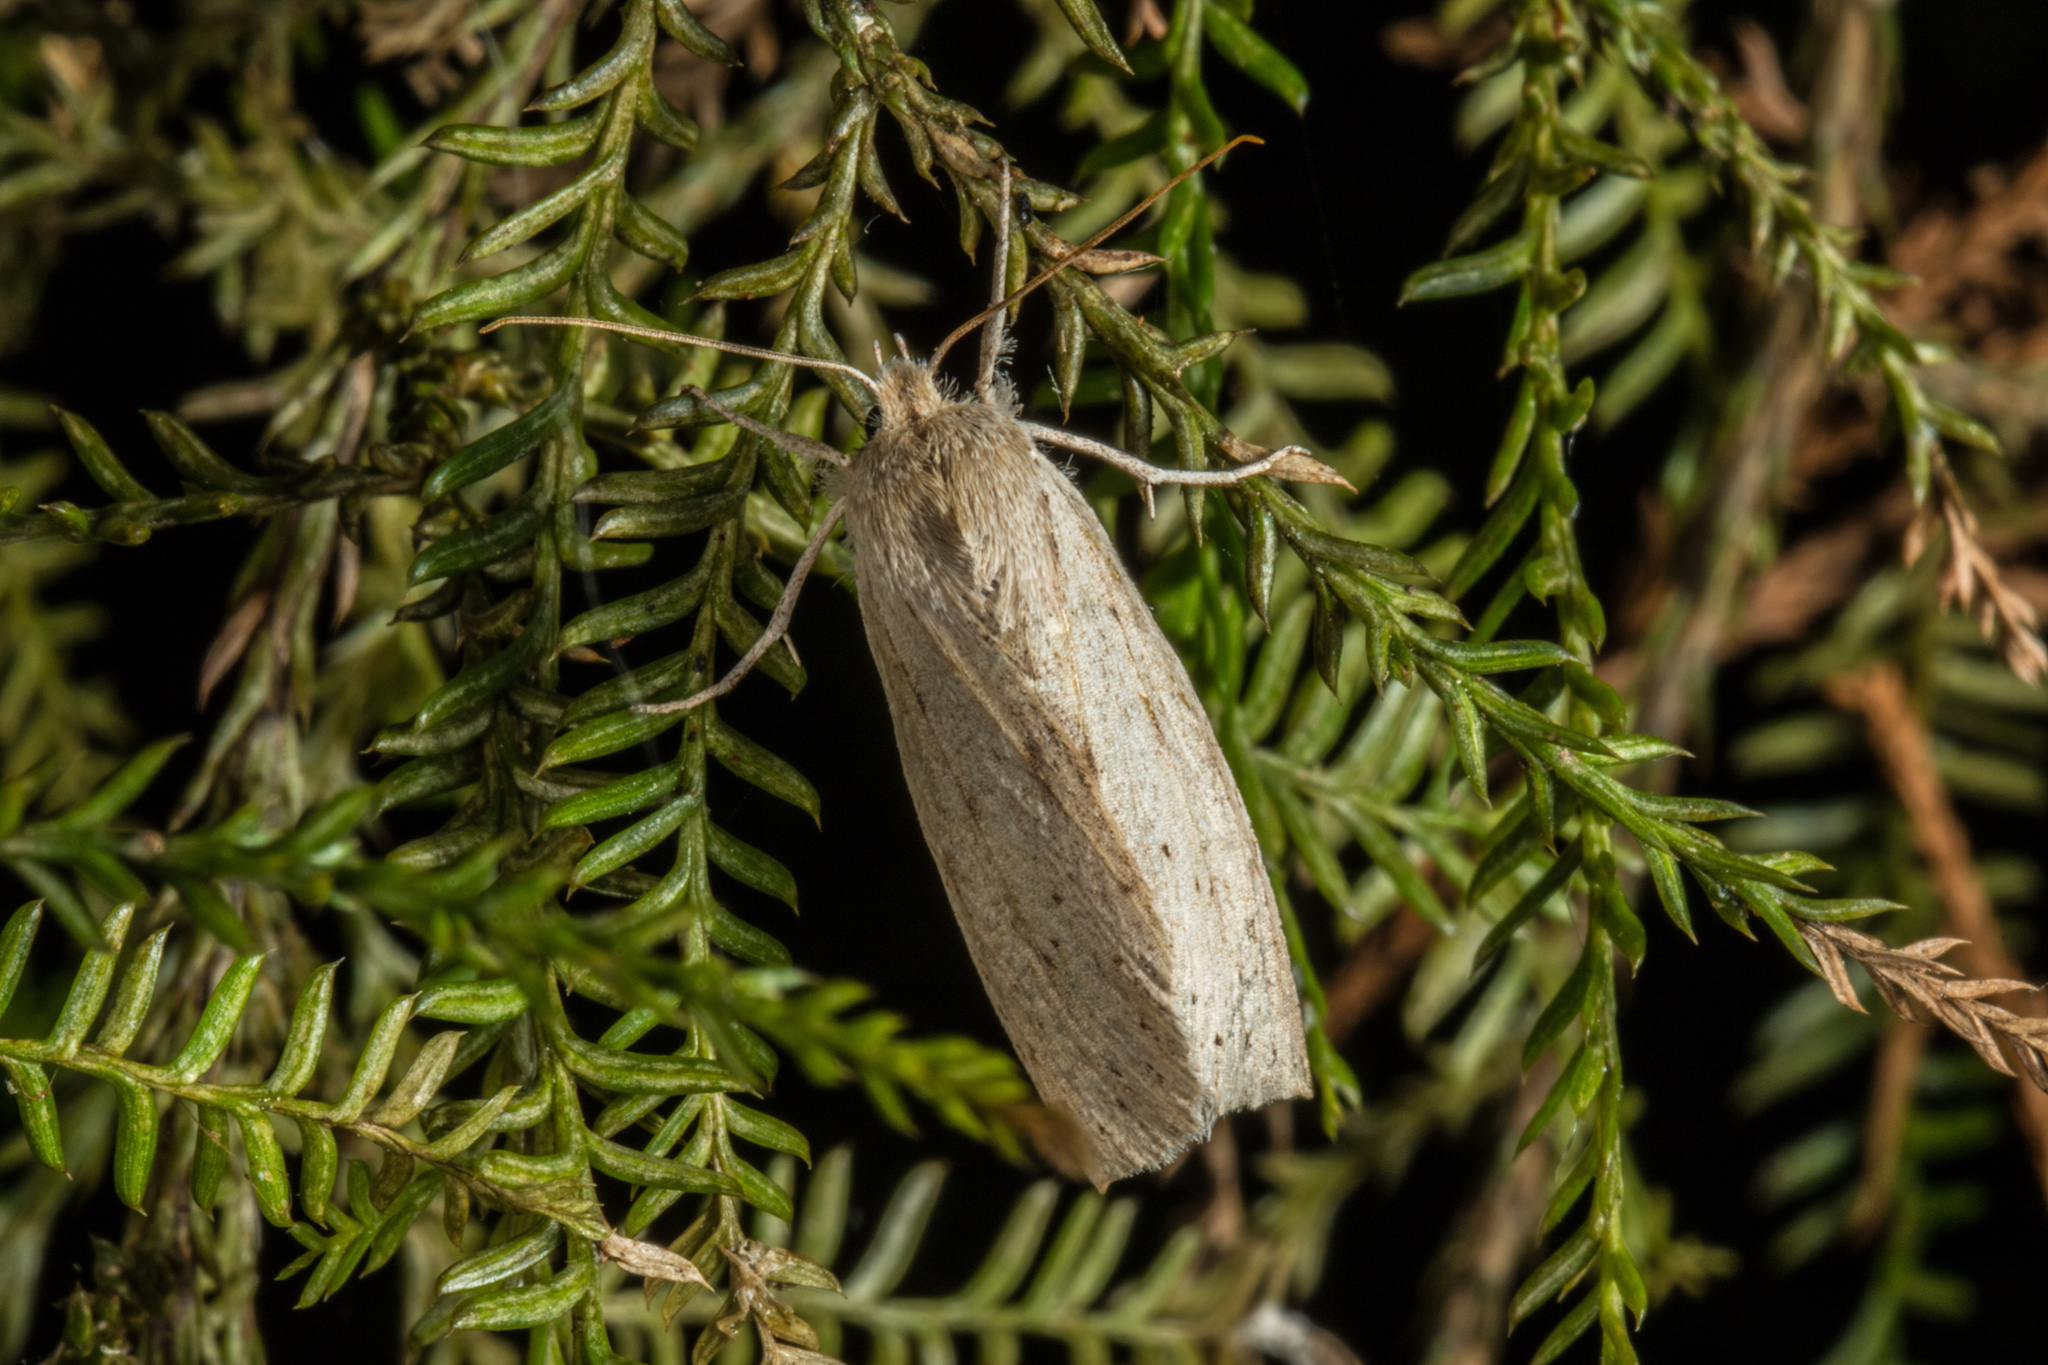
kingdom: Animalia
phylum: Arthropoda
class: Insecta
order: Lepidoptera
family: Geometridae
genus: Declana
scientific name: Declana leptomera
